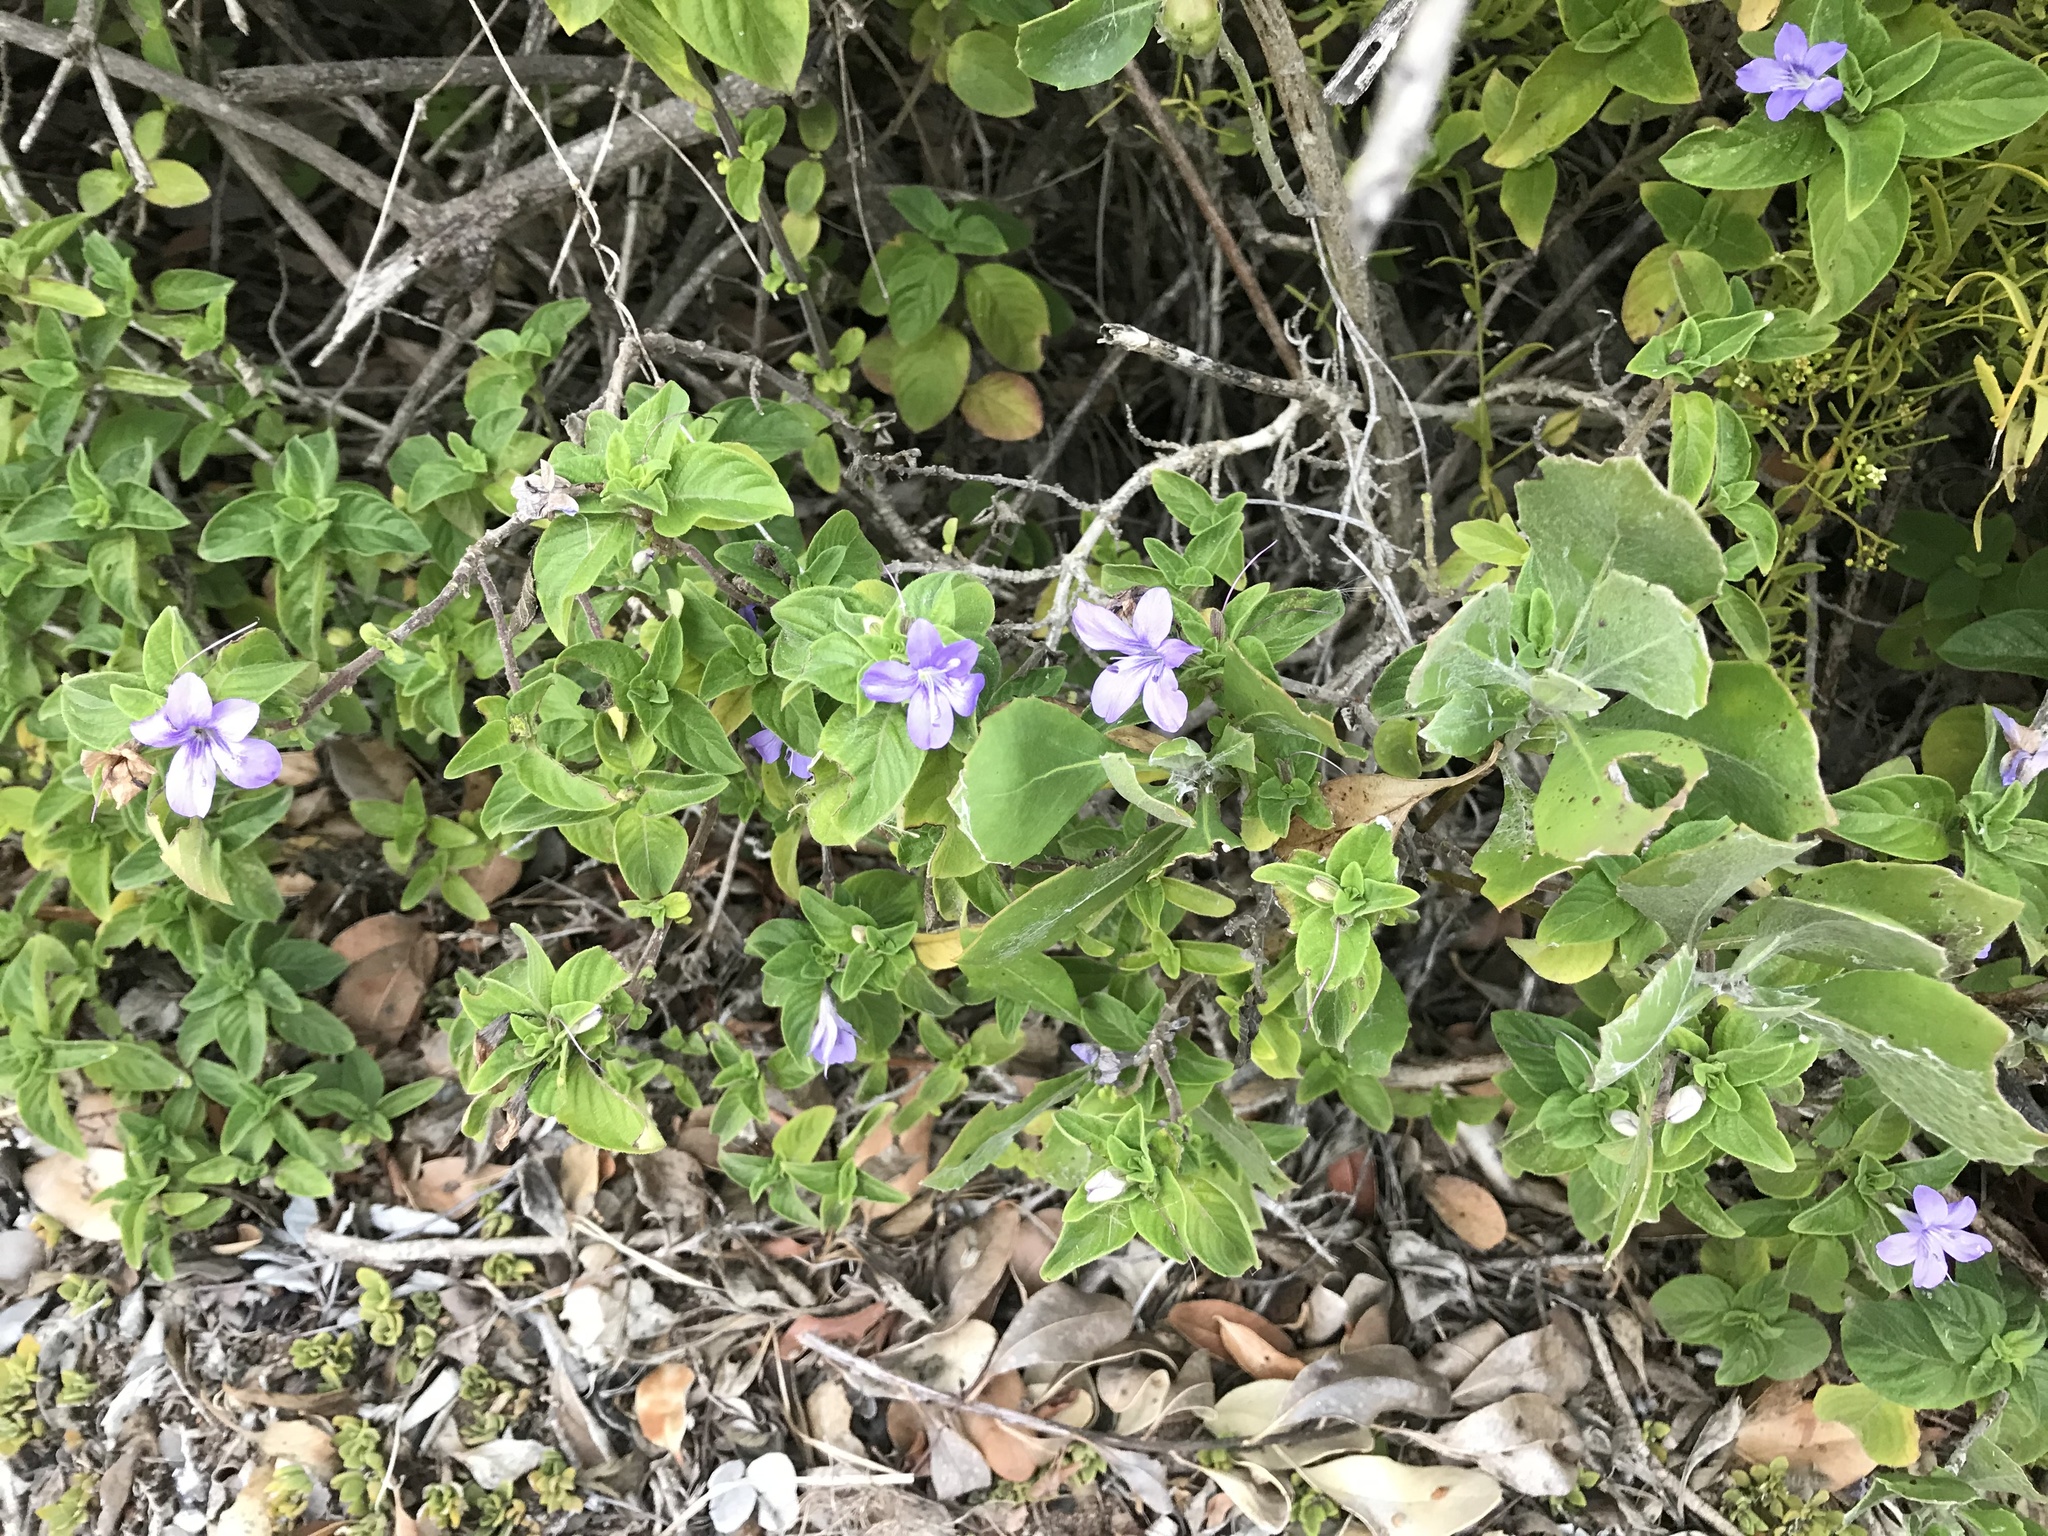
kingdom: Plantae
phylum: Tracheophyta
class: Magnoliopsida
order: Lamiales
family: Acanthaceae
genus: Barleria
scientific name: Barleria obtusa
